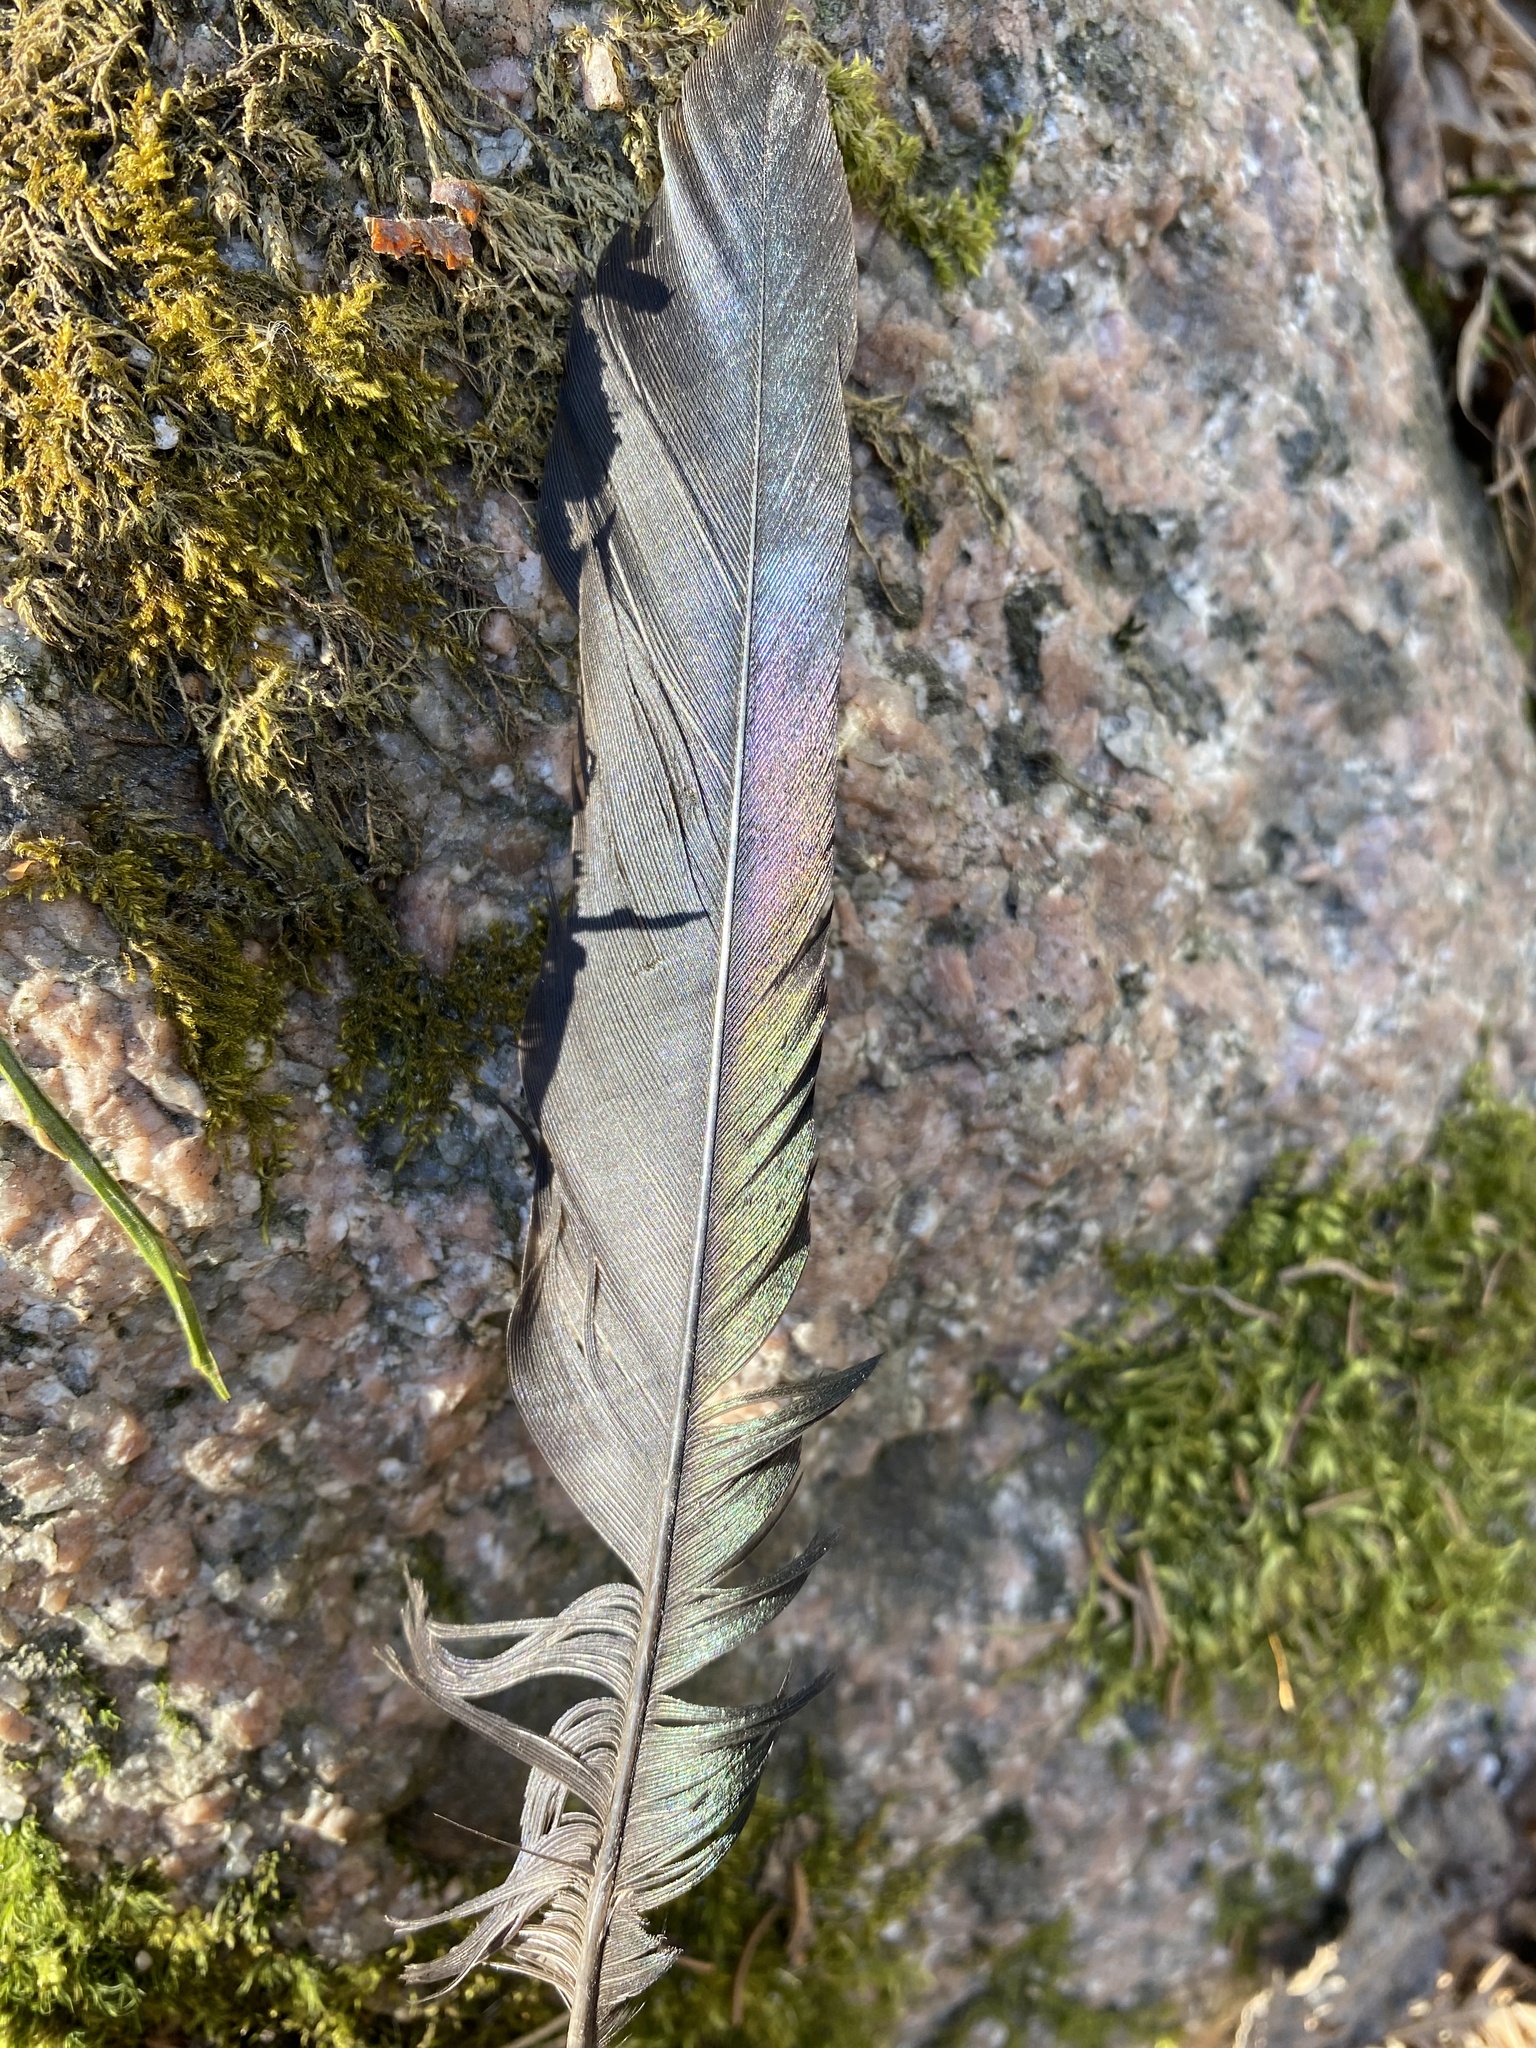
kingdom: Animalia
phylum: Chordata
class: Aves
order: Passeriformes
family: Corvidae
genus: Pica
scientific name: Pica pica
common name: Eurasian magpie
